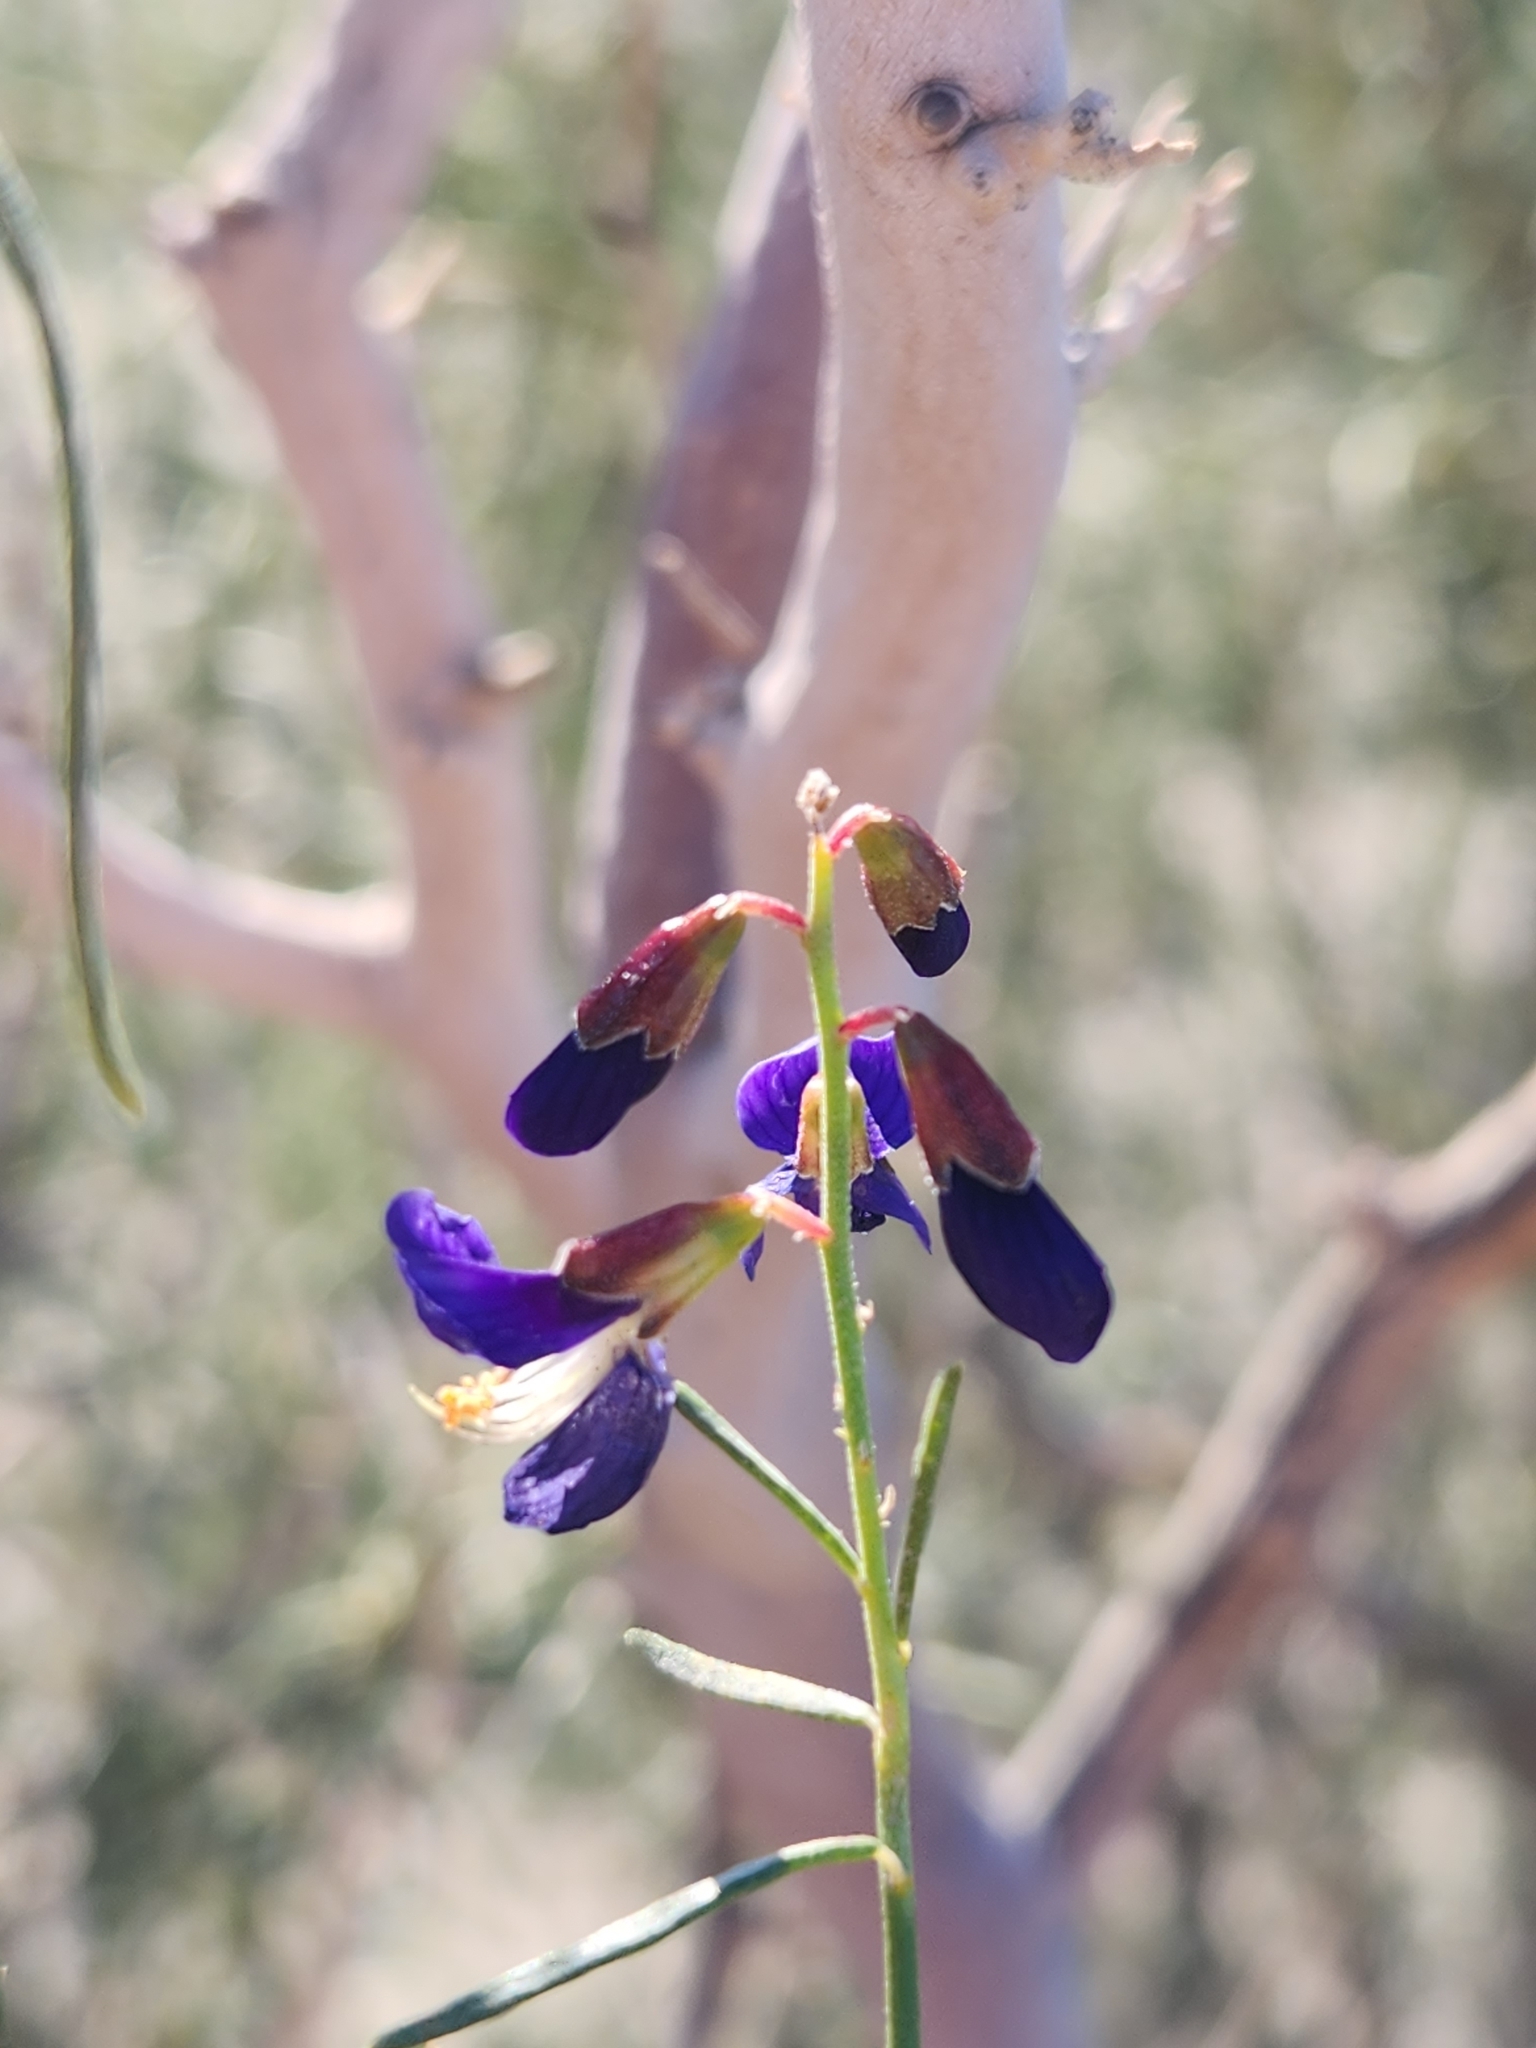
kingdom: Plantae
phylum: Tracheophyta
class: Magnoliopsida
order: Fabales
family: Fabaceae
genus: Psorothamnus
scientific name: Psorothamnus schottii
